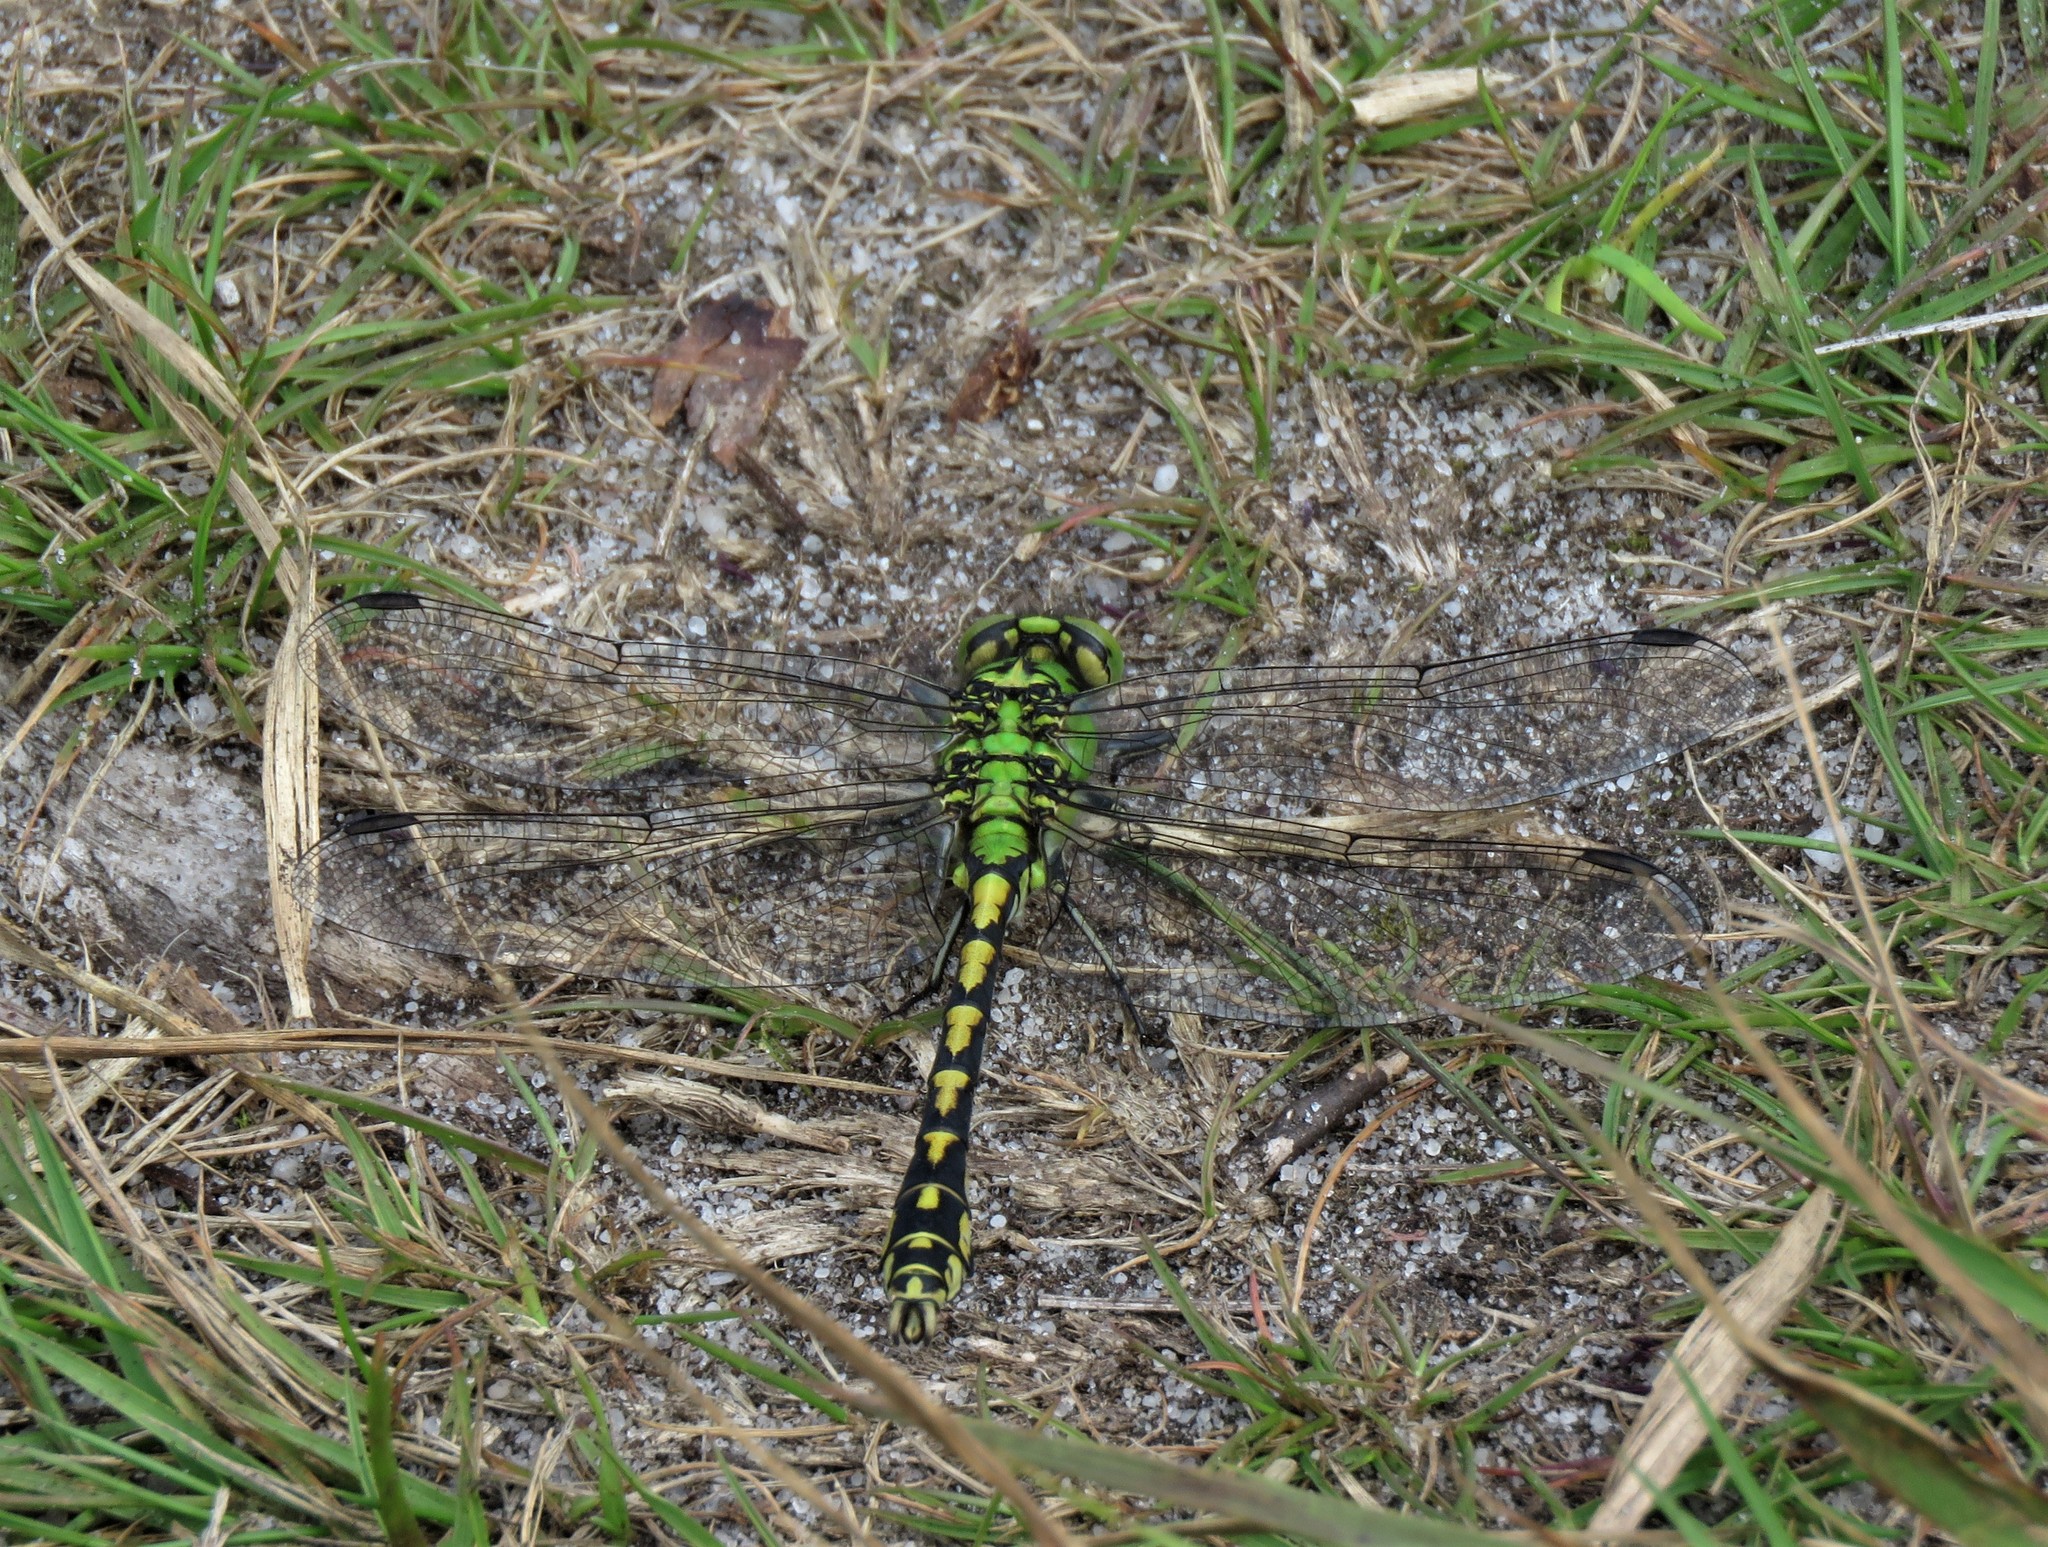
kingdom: Animalia
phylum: Arthropoda
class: Insecta
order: Odonata
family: Gomphidae
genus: Ophiogomphus
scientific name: Ophiogomphus cecilia
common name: Green snaketail
